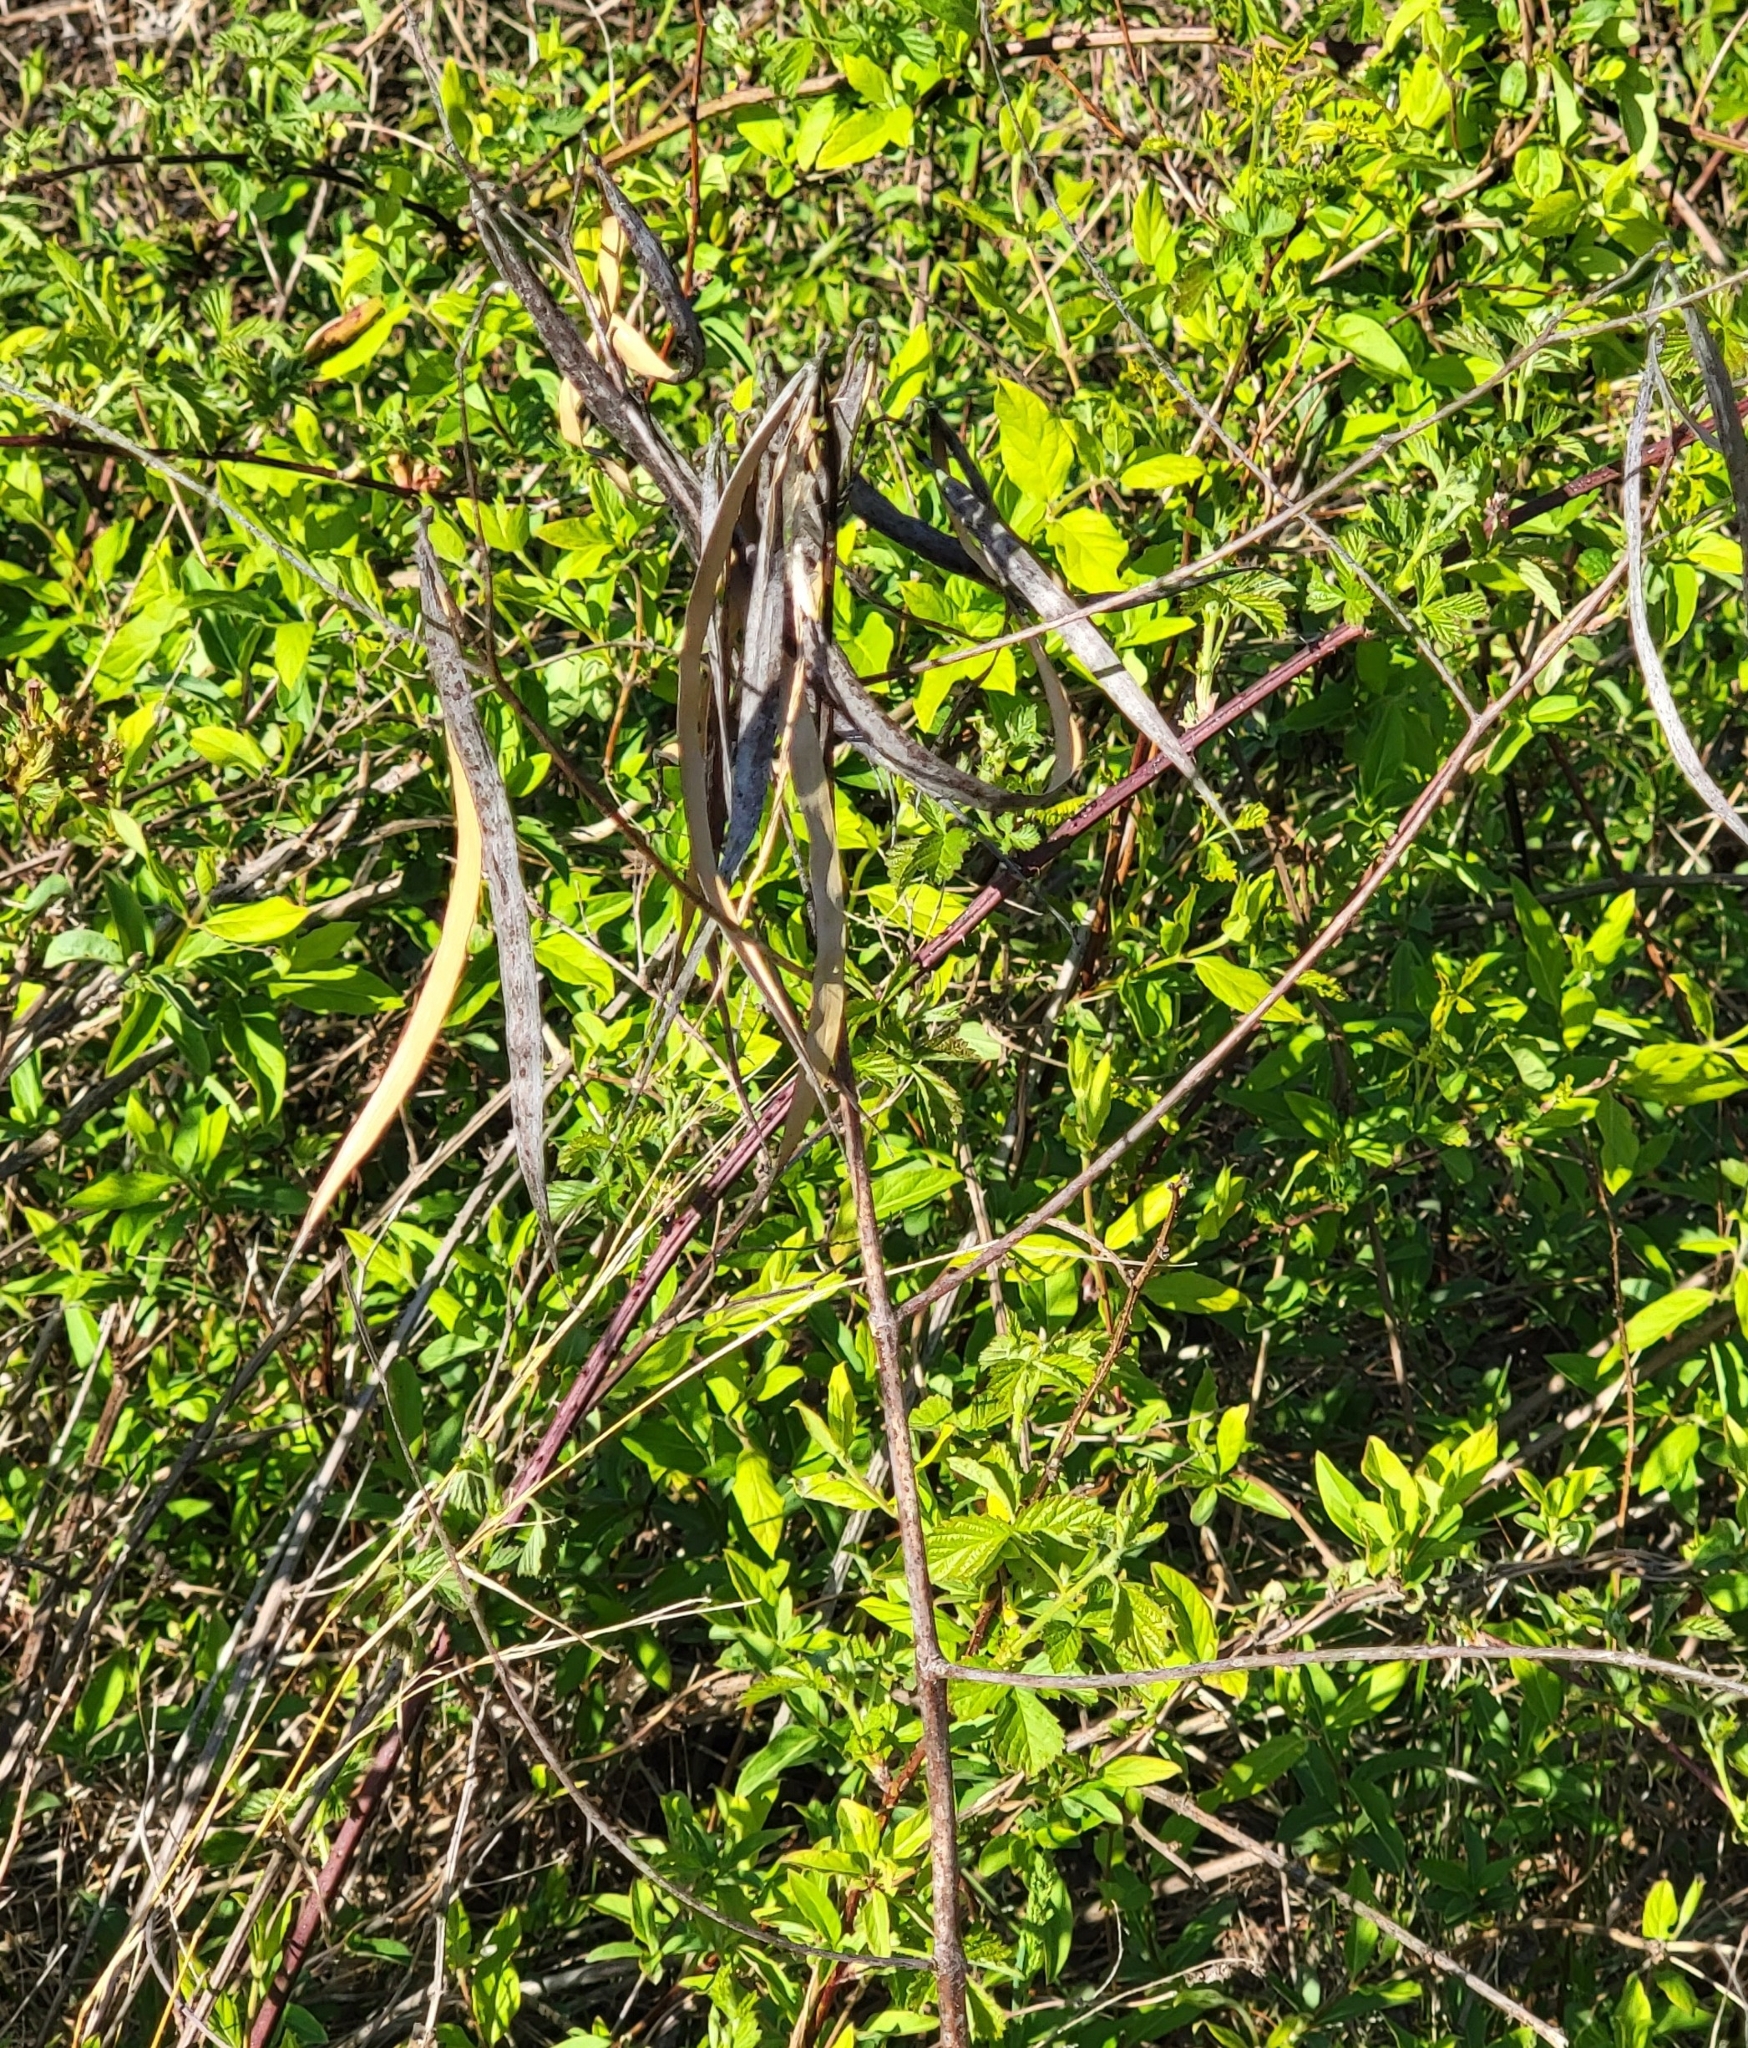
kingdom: Plantae
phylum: Tracheophyta
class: Magnoliopsida
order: Gentianales
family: Apocynaceae
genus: Apocynum
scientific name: Apocynum cannabinum
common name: Hemp dogbane
